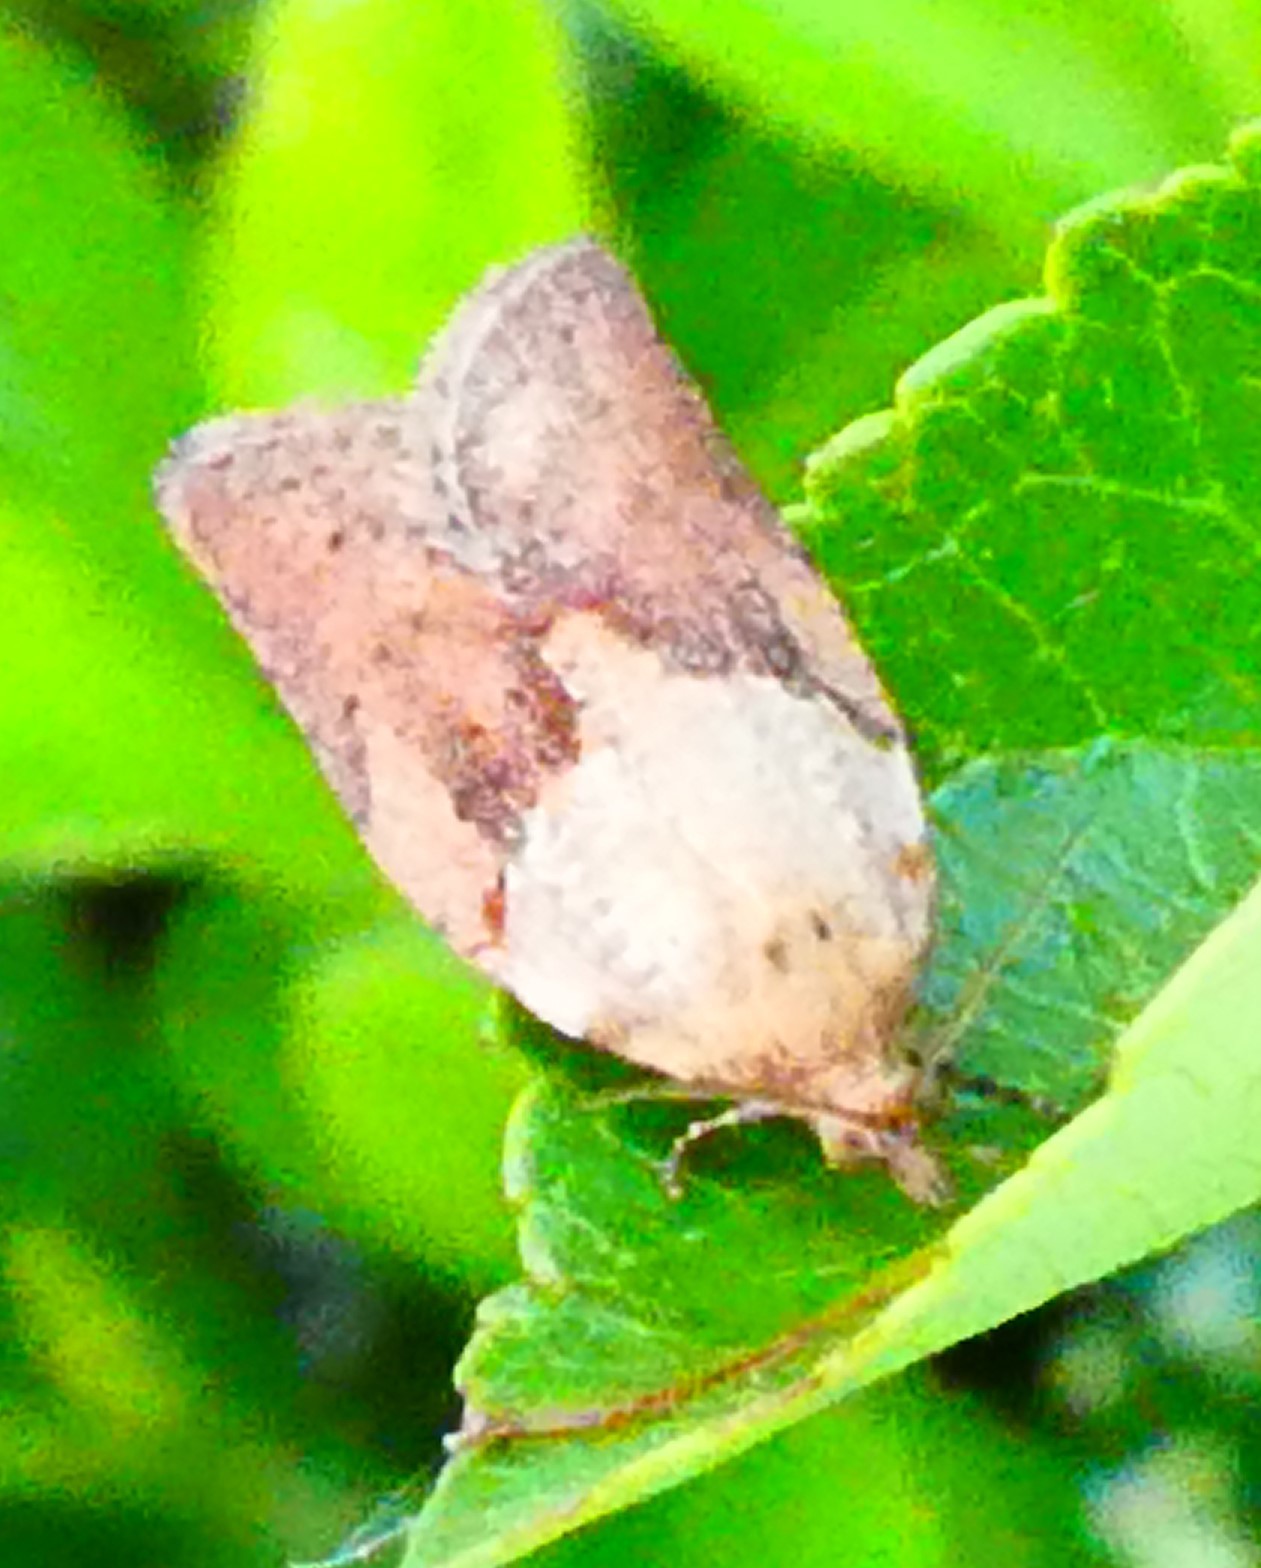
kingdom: Animalia
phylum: Arthropoda
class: Insecta
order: Lepidoptera
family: Tortricidae
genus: Epiphyas
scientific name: Epiphyas postvittana
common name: Light brown apple moth
